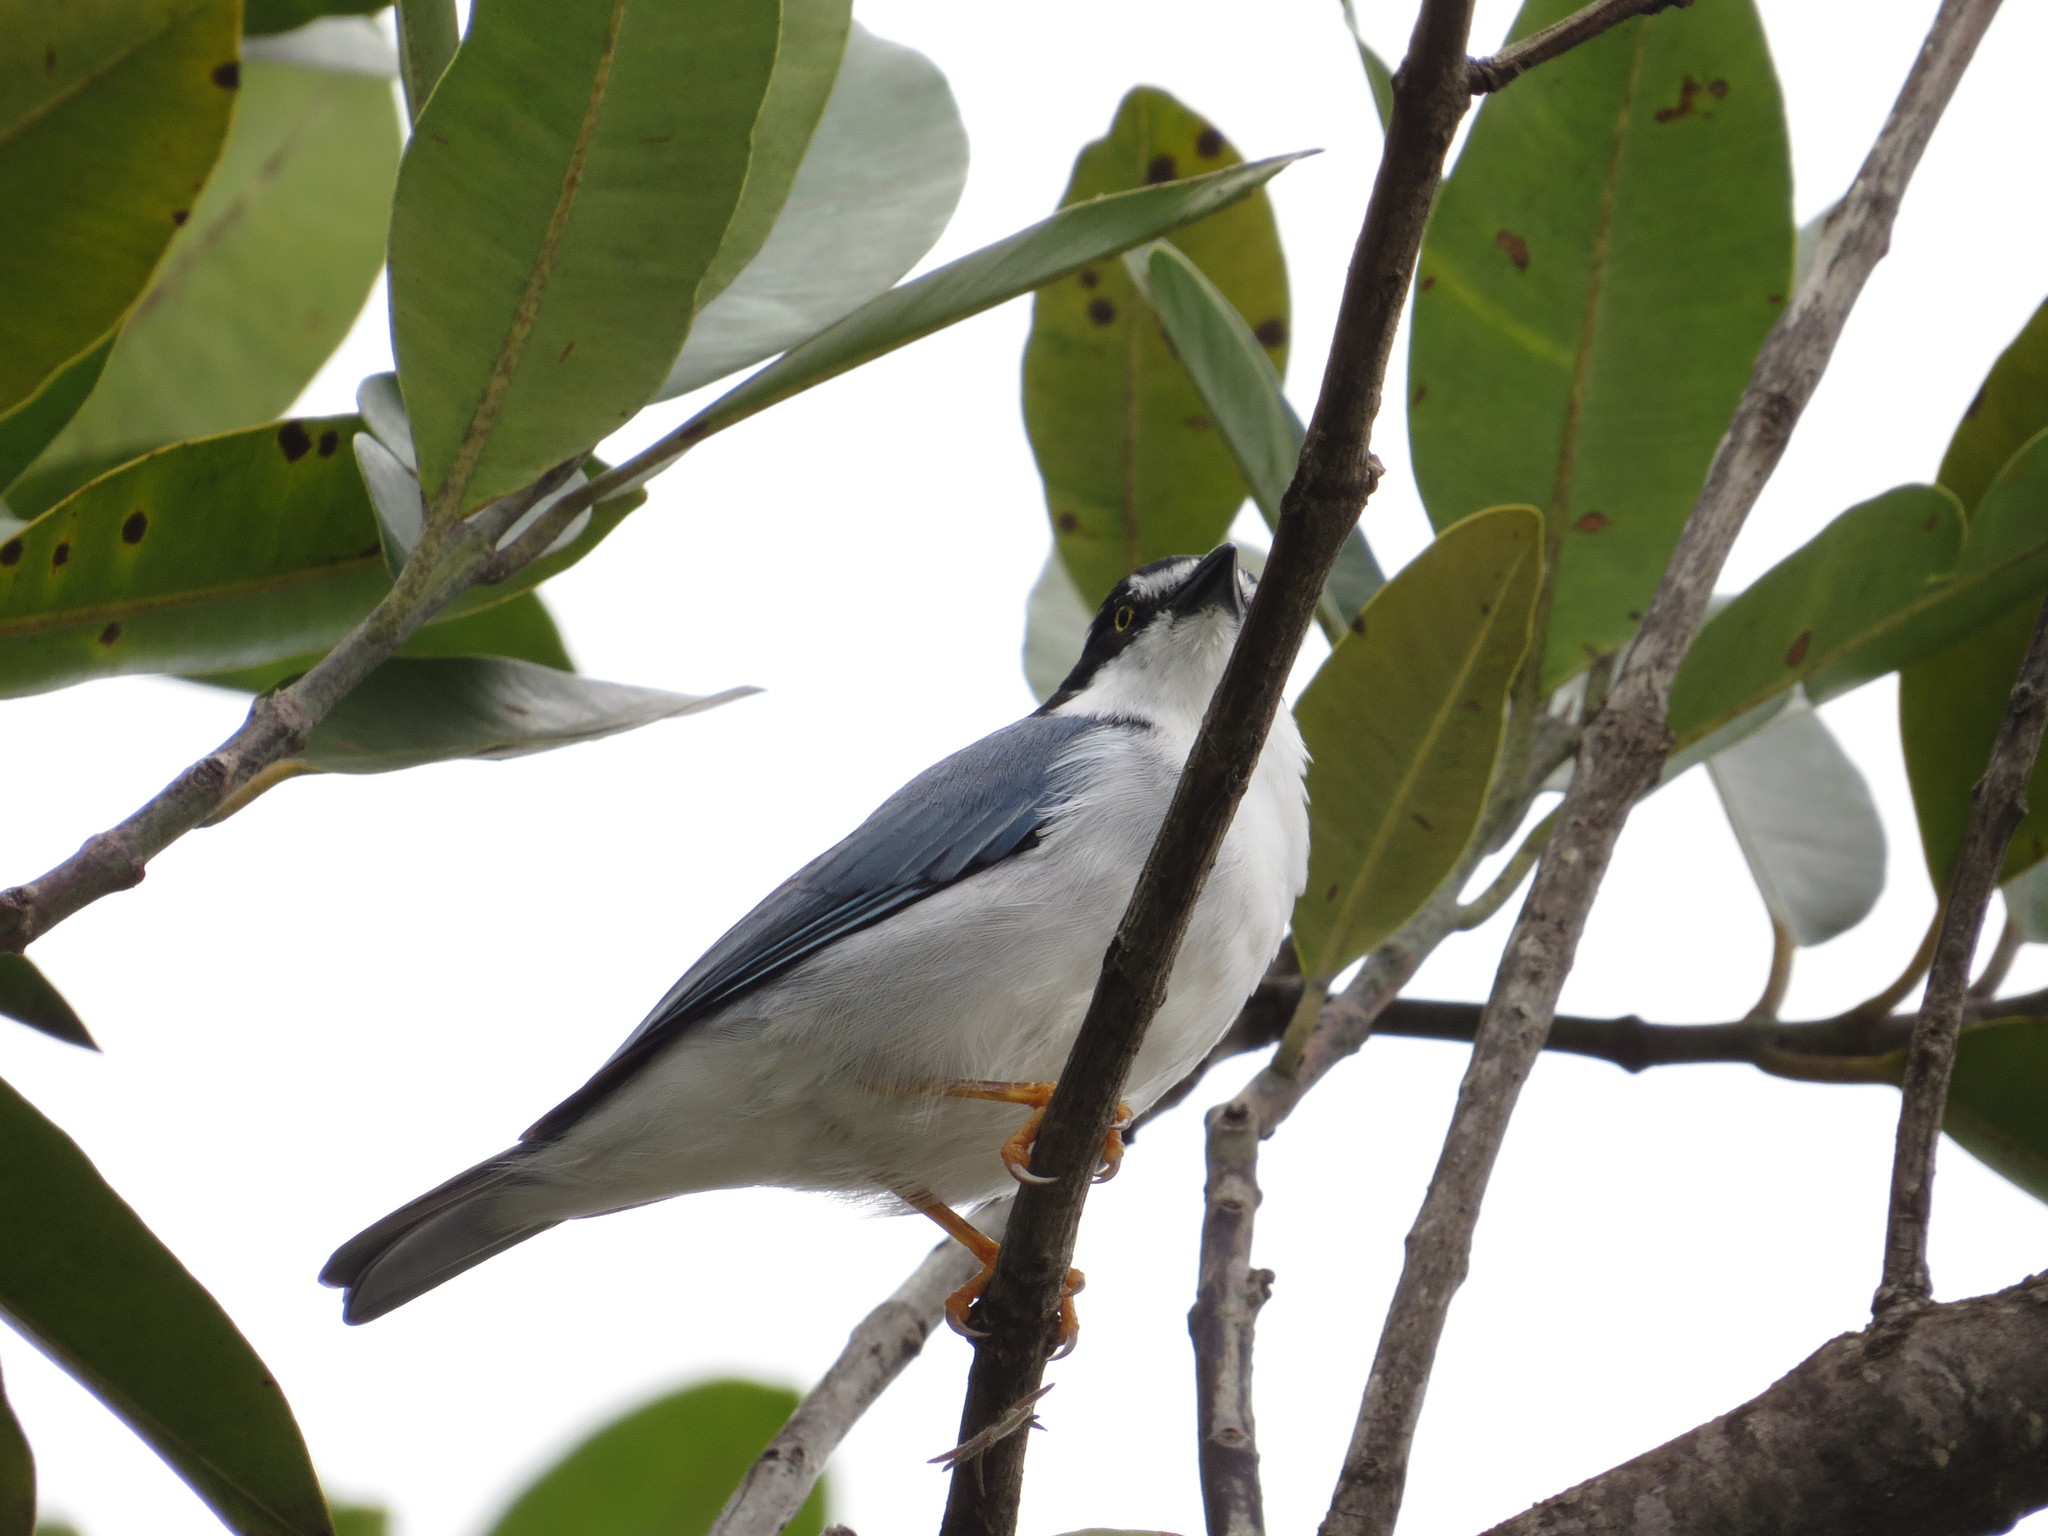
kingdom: Animalia
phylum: Chordata
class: Aves
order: Passeriformes
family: Thraupidae
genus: Nemosia
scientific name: Nemosia pileata
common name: Hooded tanager
